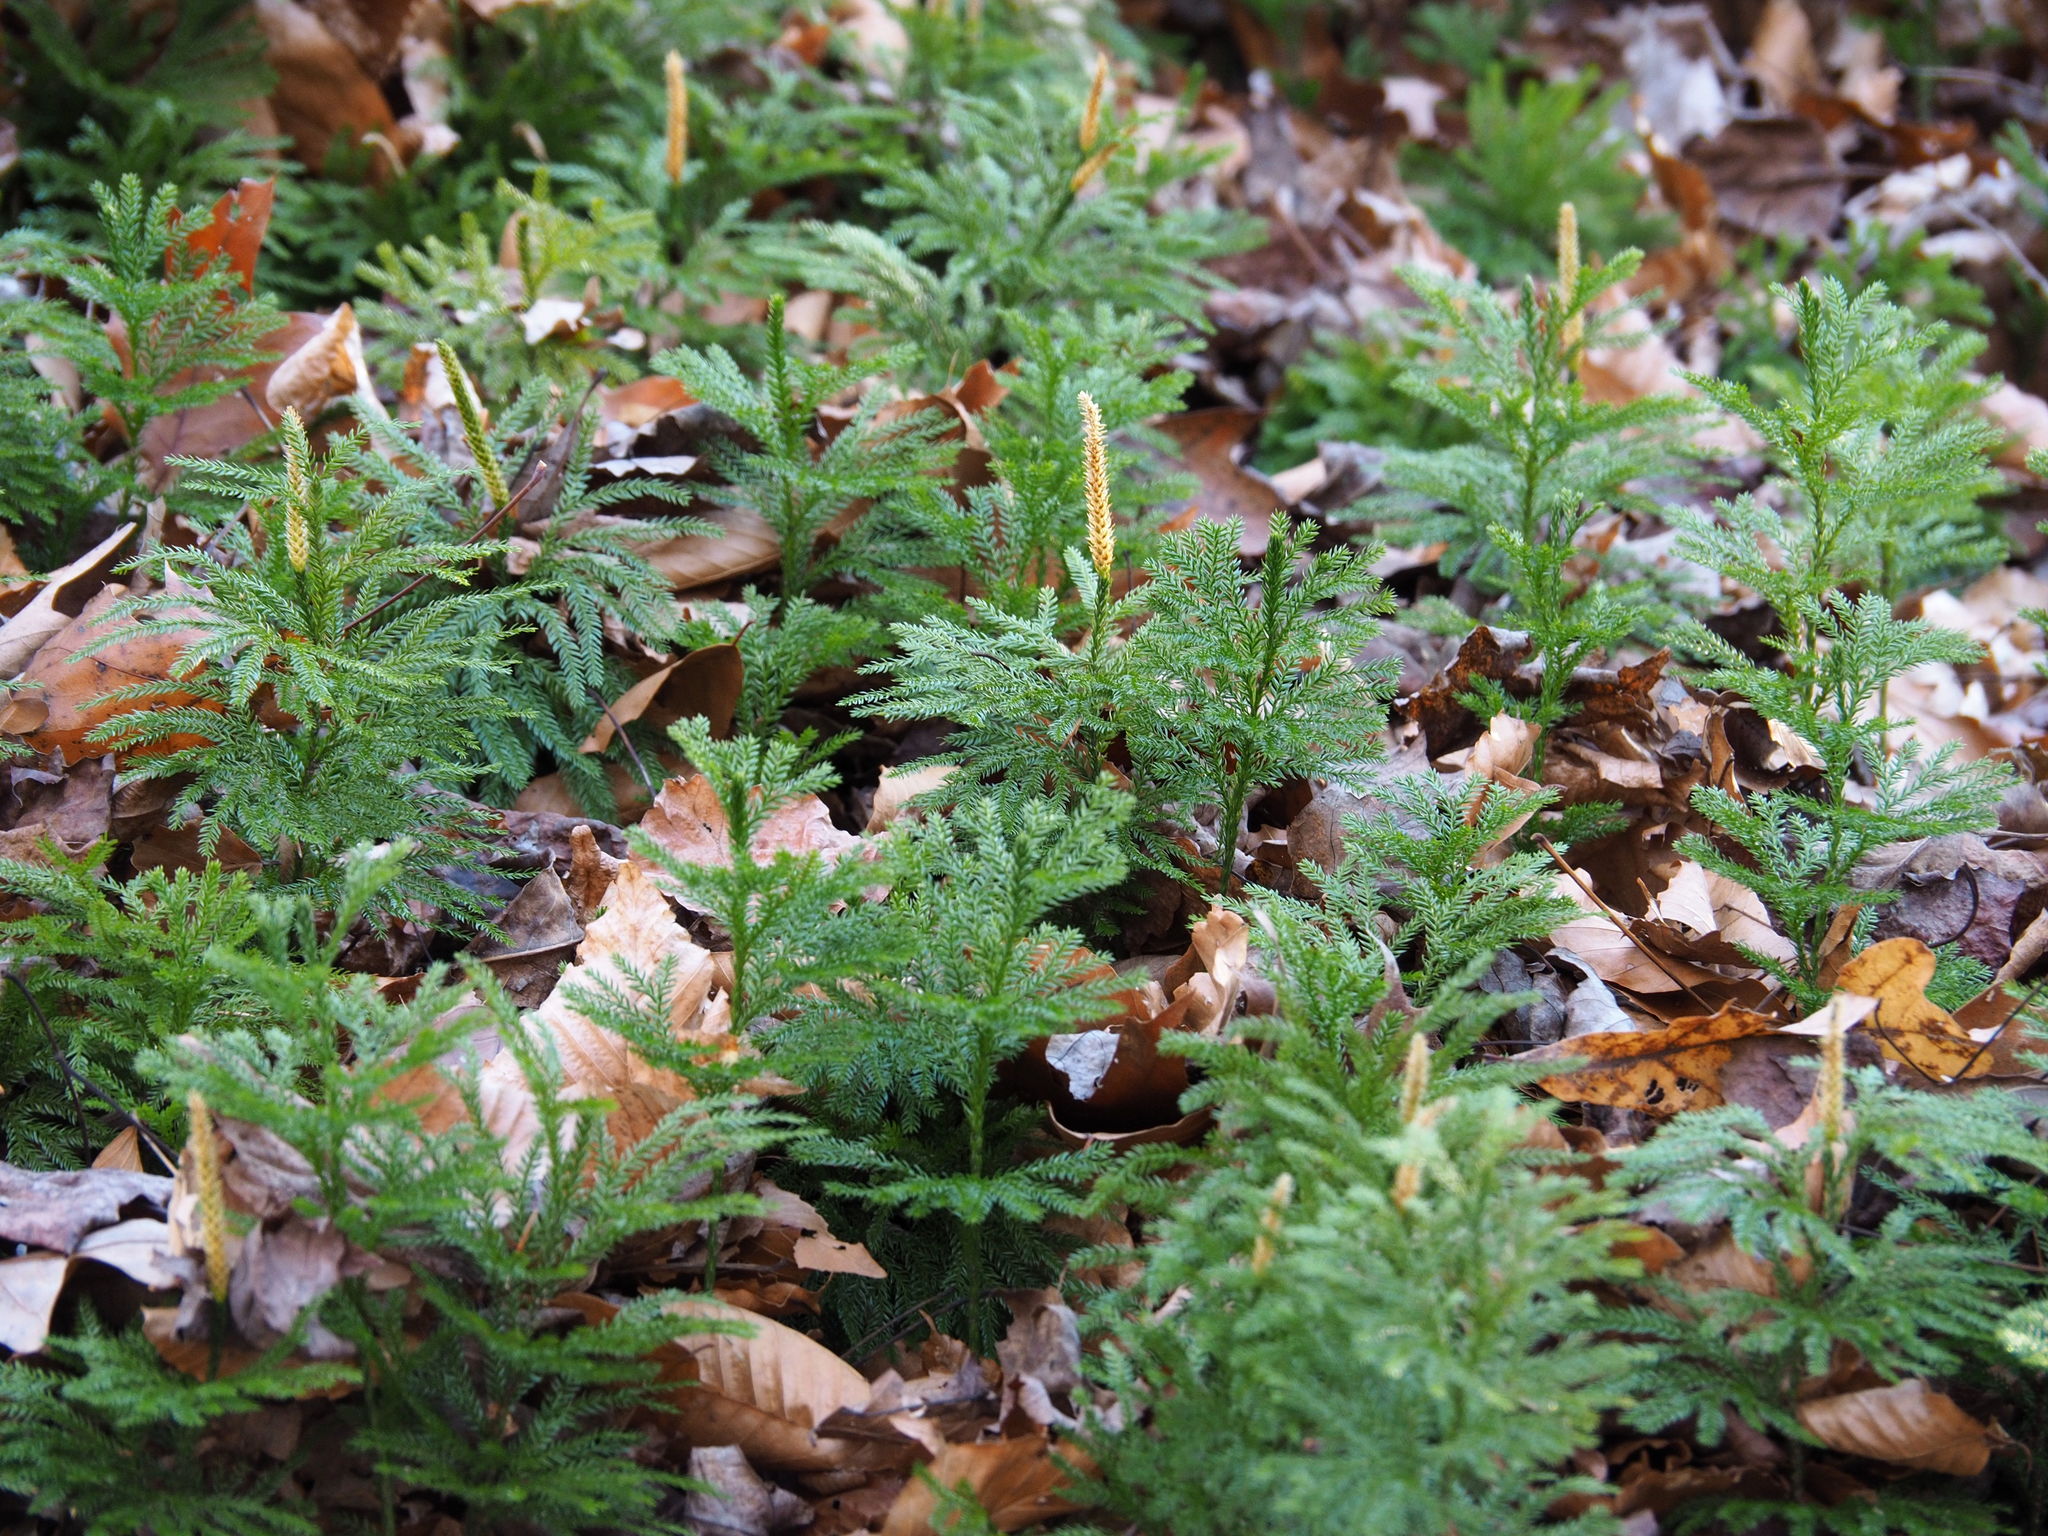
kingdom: Plantae
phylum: Tracheophyta
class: Lycopodiopsida
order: Lycopodiales
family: Lycopodiaceae
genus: Dendrolycopodium
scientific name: Dendrolycopodium obscurum
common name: Common ground-pine
